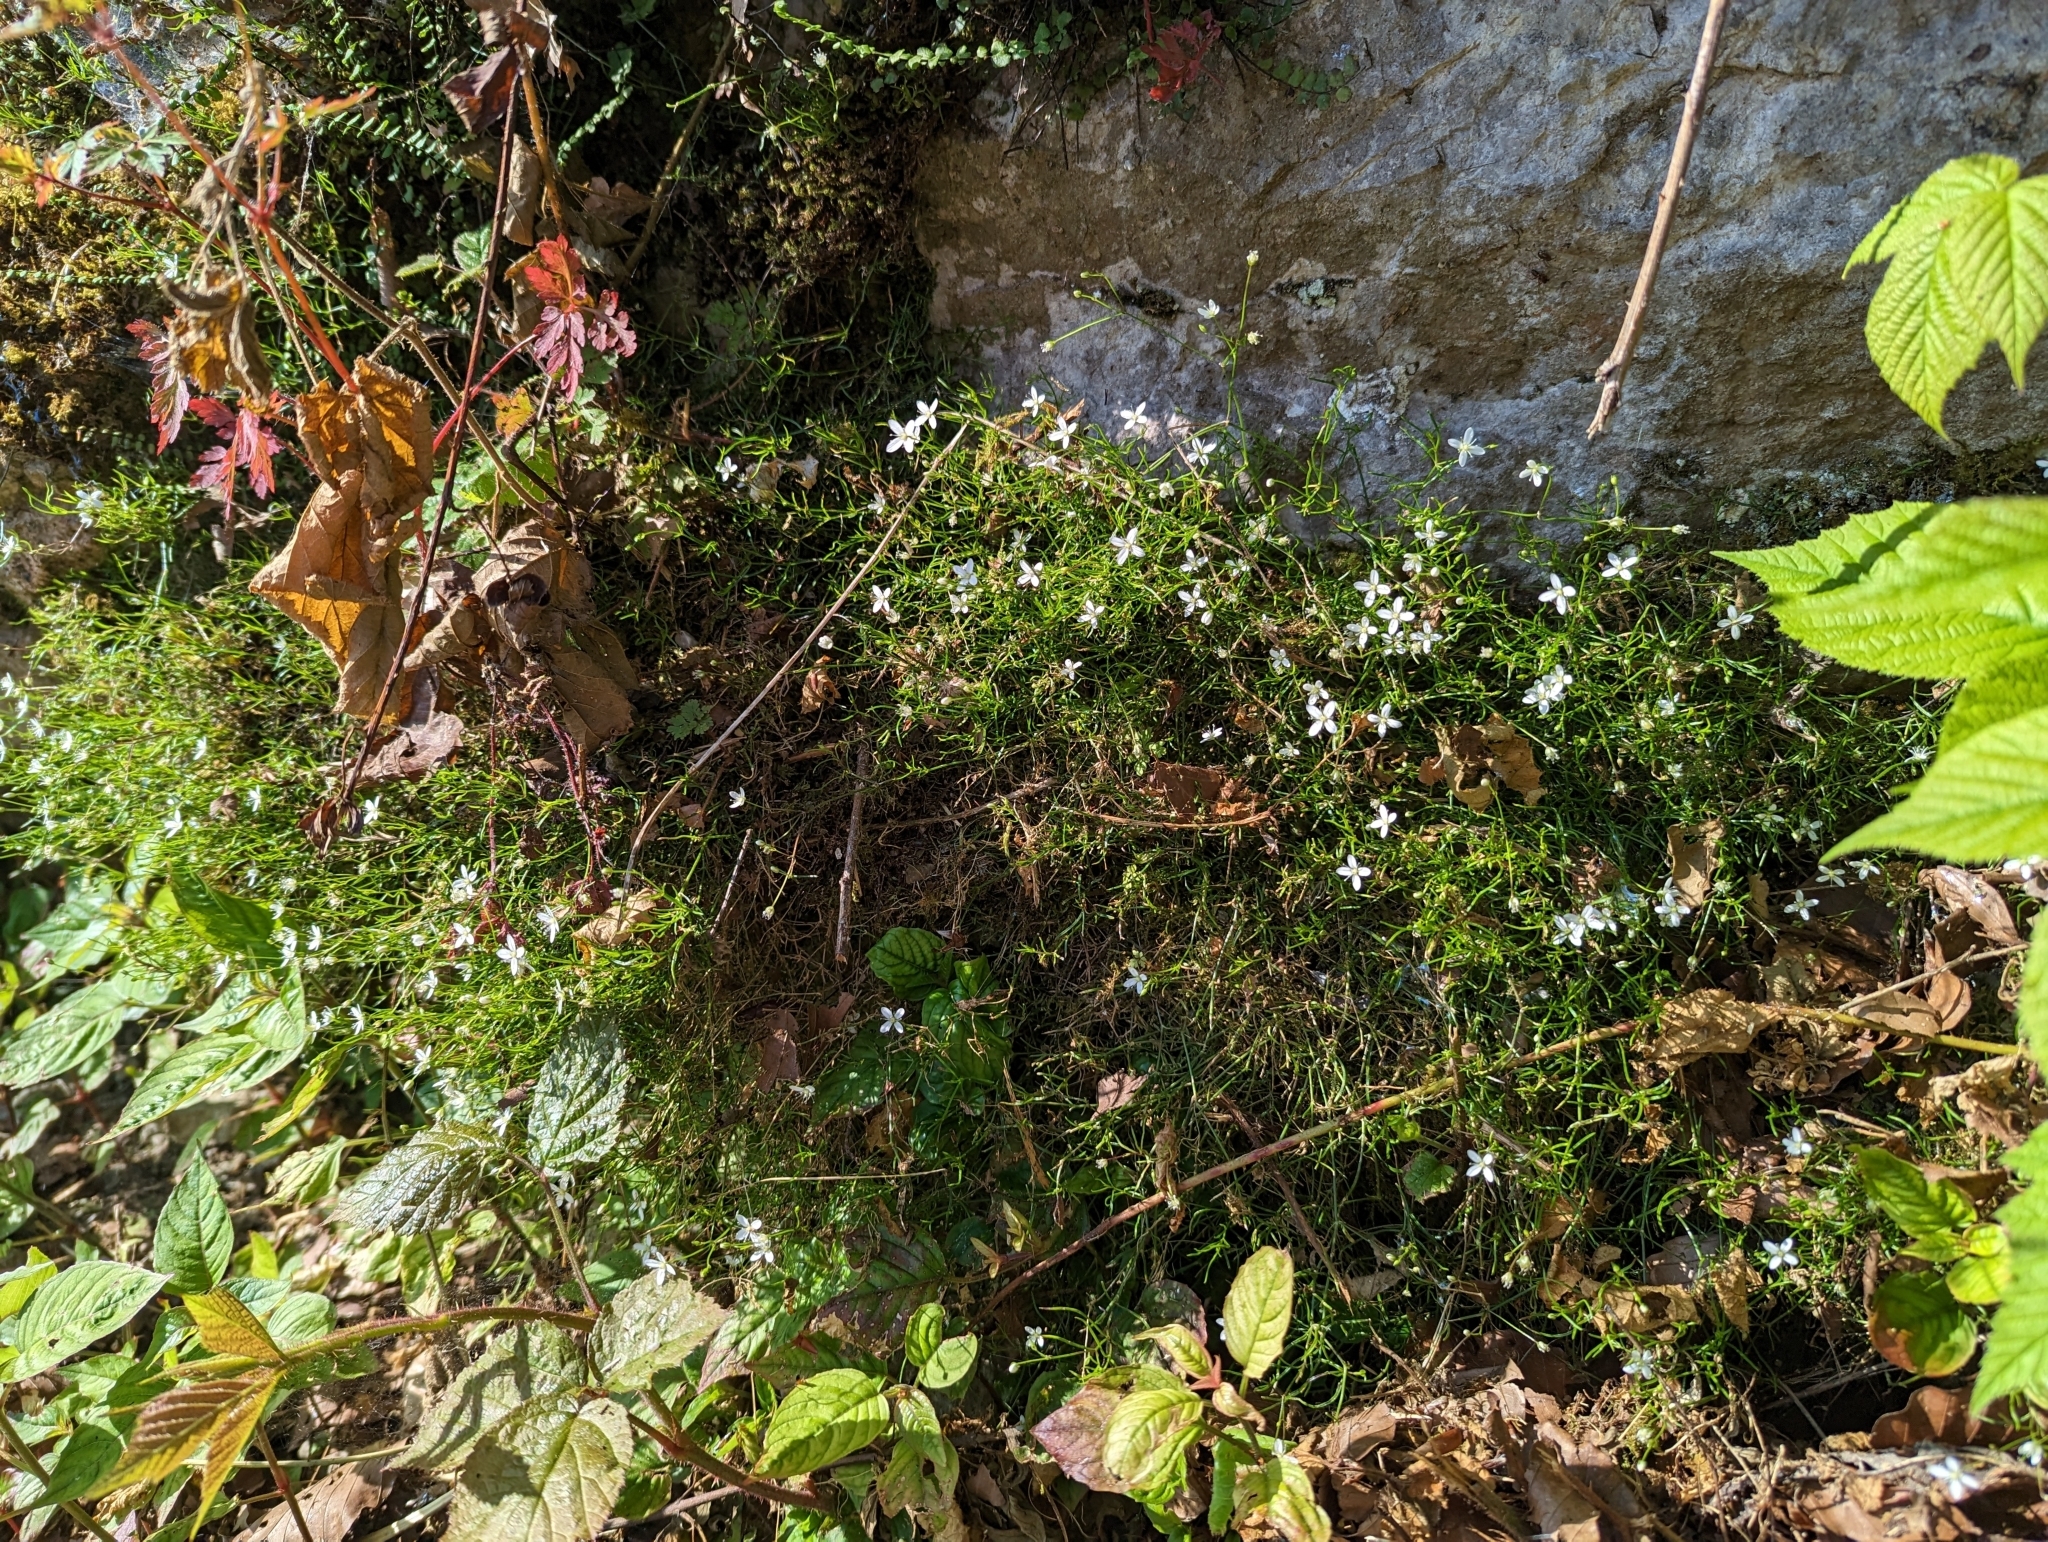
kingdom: Plantae
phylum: Tracheophyta
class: Magnoliopsida
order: Caryophyllales
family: Caryophyllaceae
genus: Moehringia
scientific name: Moehringia muscosa
